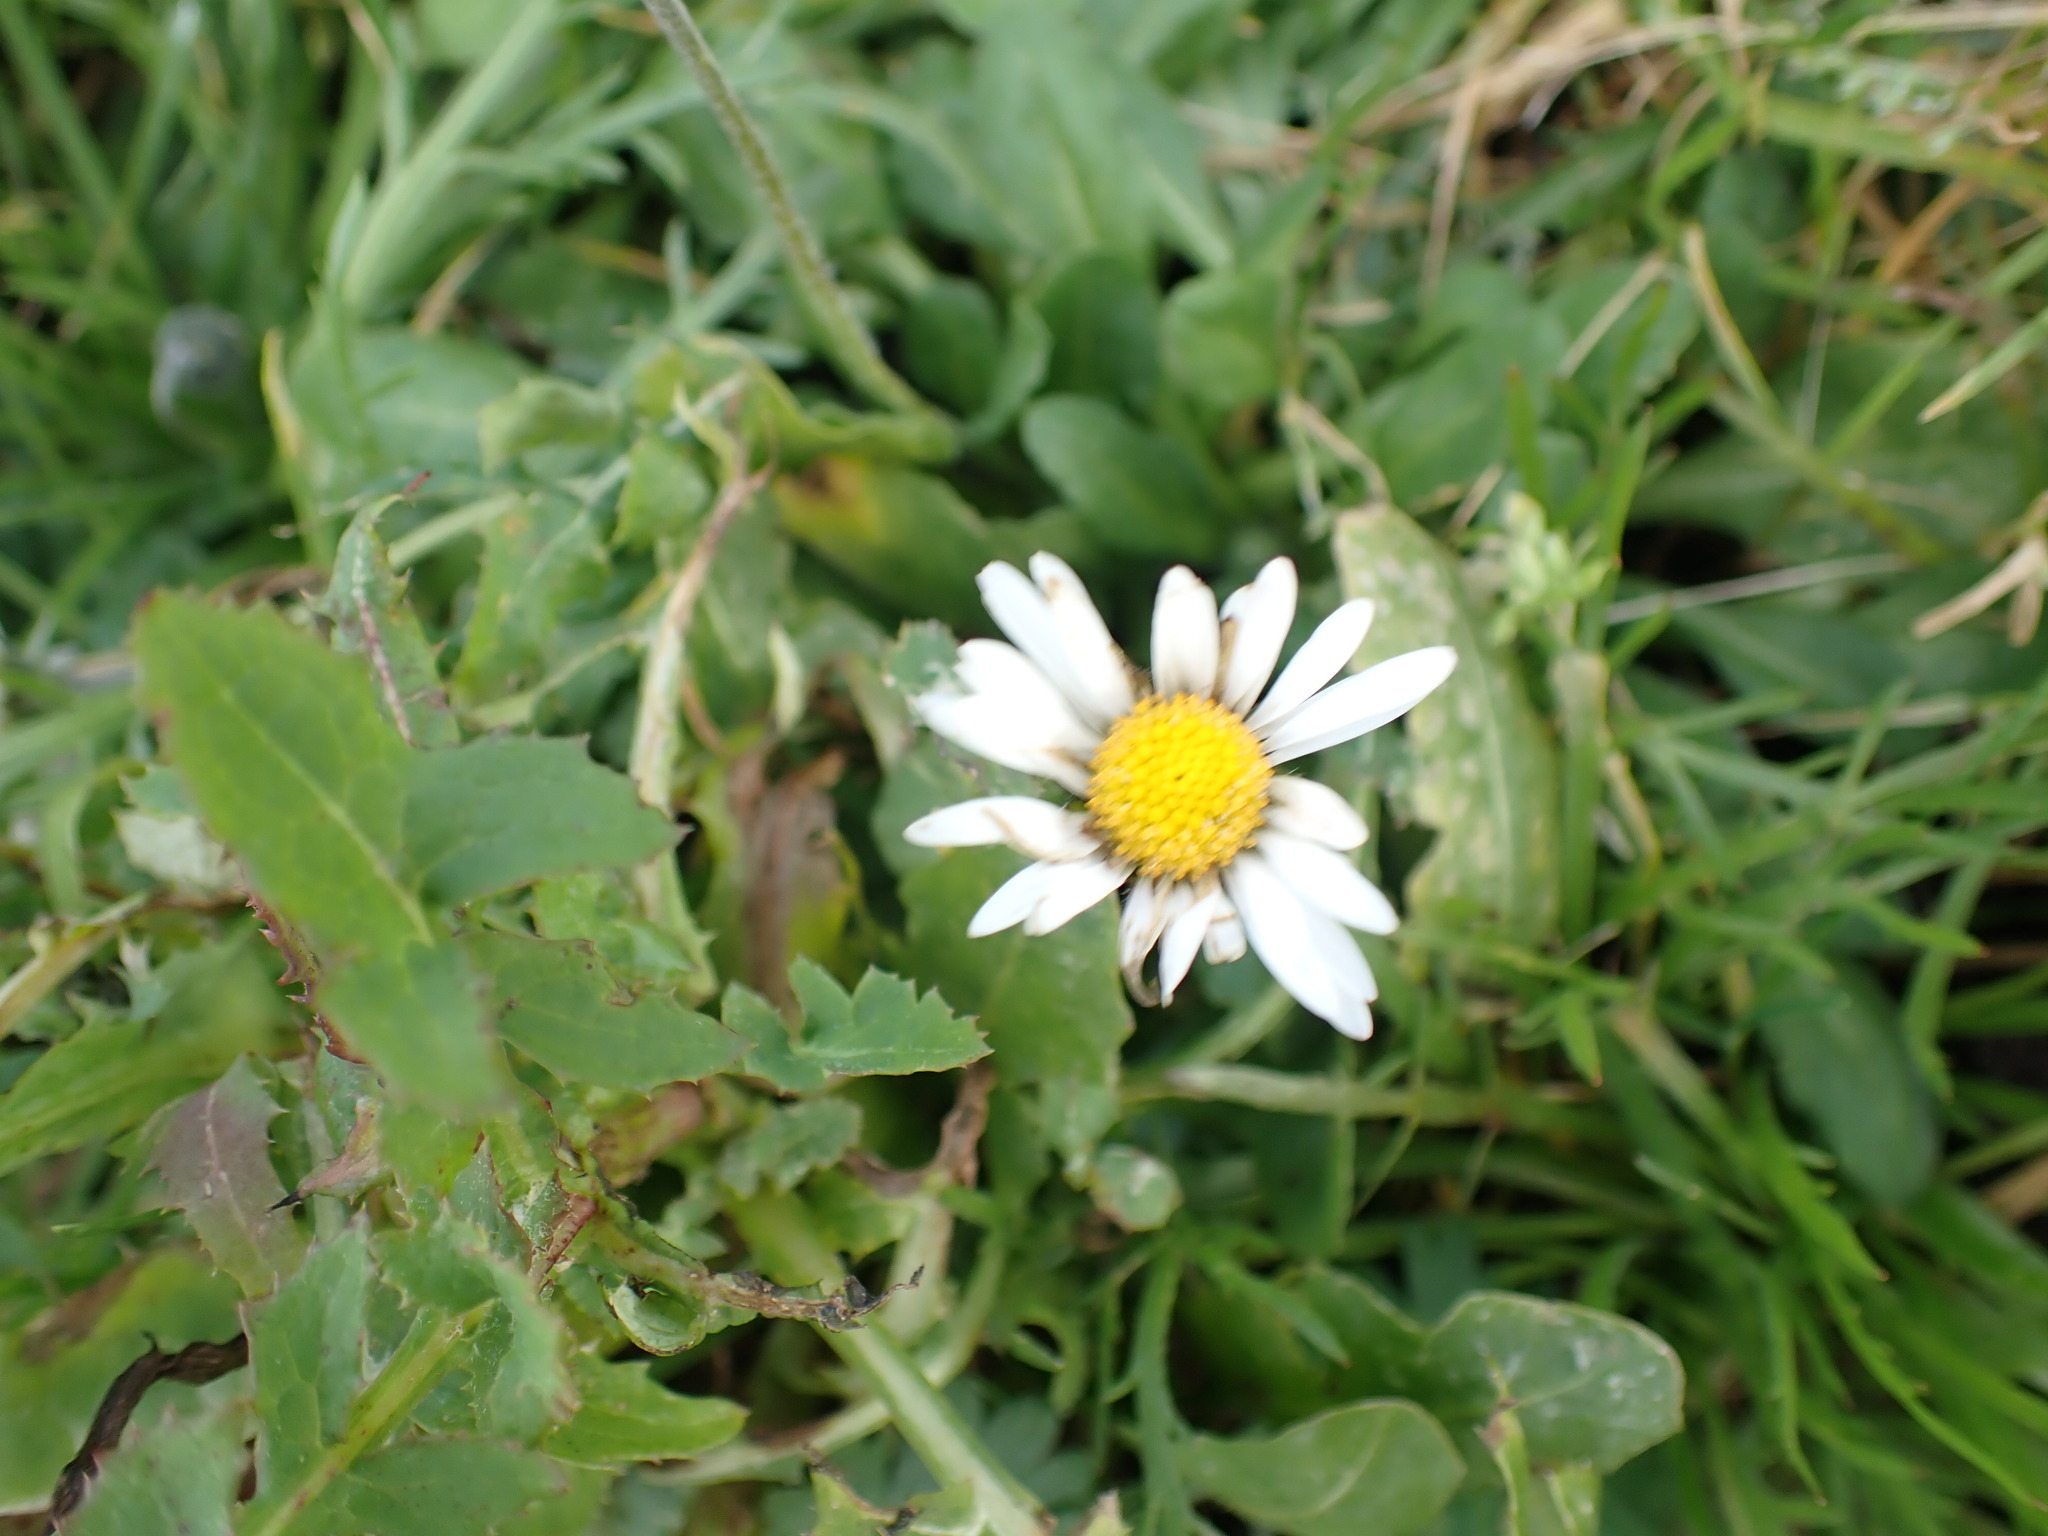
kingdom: Plantae
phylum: Tracheophyta
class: Magnoliopsida
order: Asterales
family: Asteraceae
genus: Bellis
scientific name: Bellis perennis
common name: Lawndaisy
